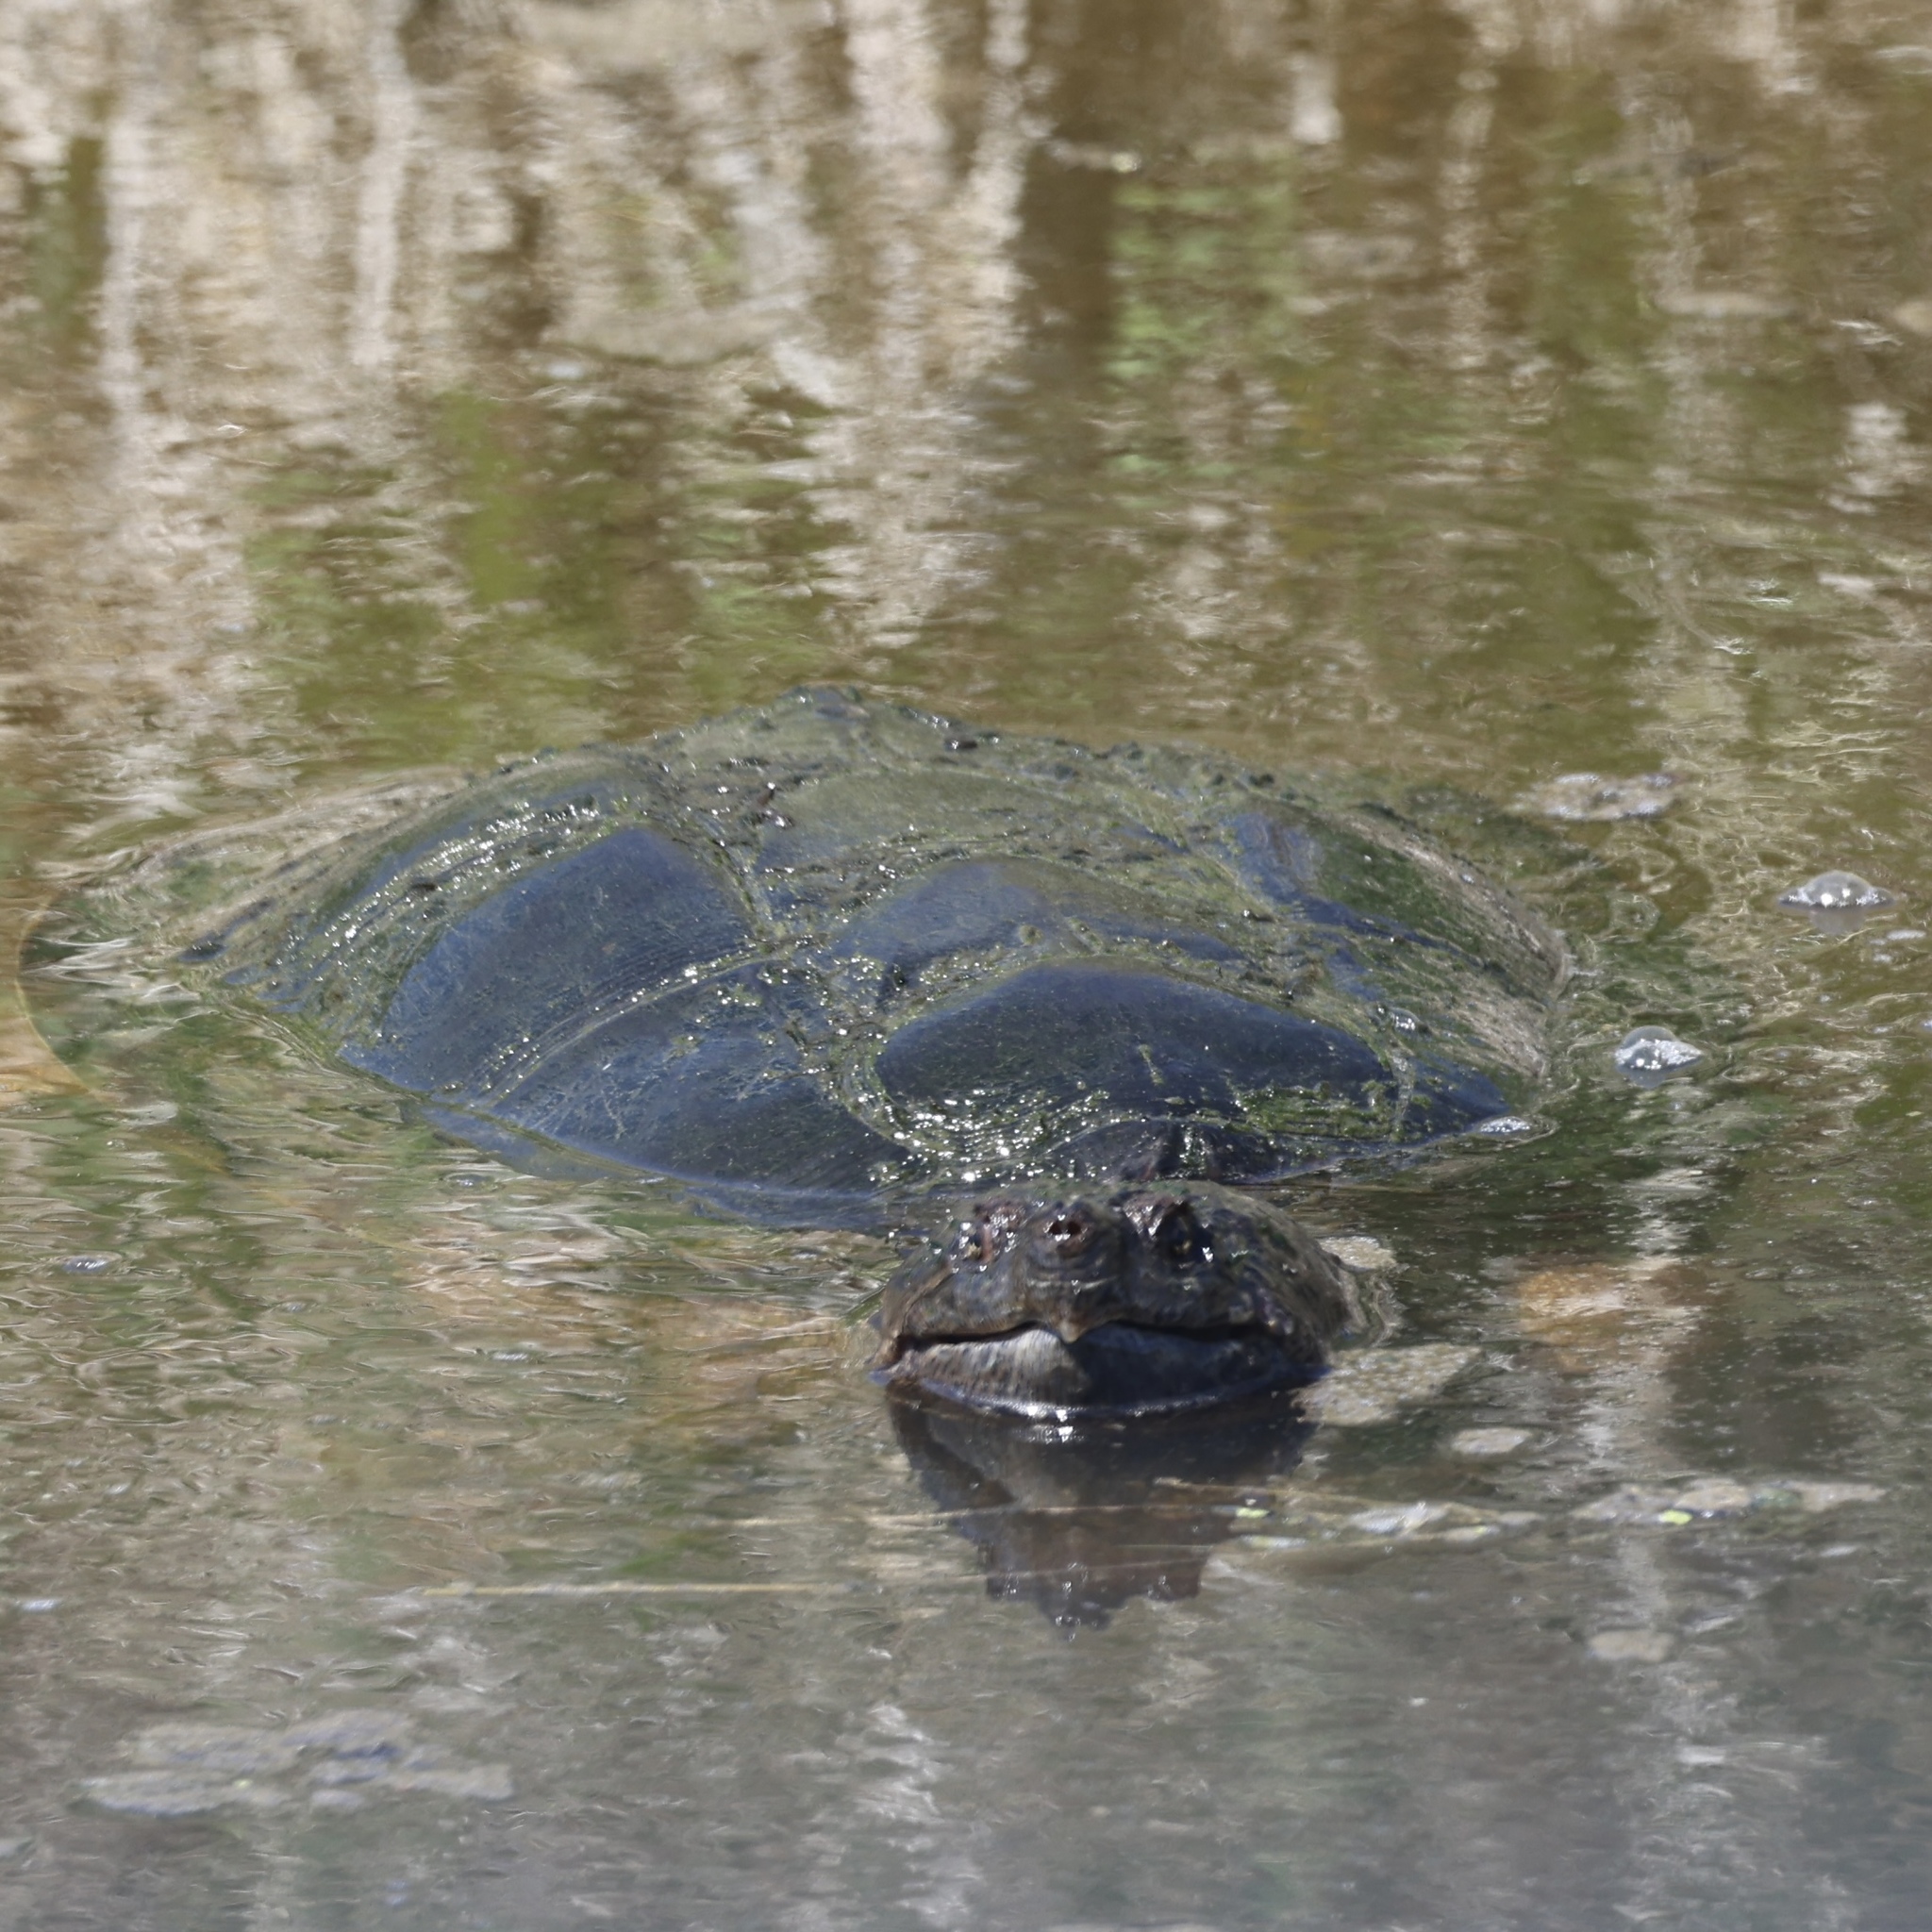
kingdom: Animalia
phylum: Chordata
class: Testudines
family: Chelydridae
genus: Chelydra
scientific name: Chelydra serpentina
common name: Common snapping turtle
